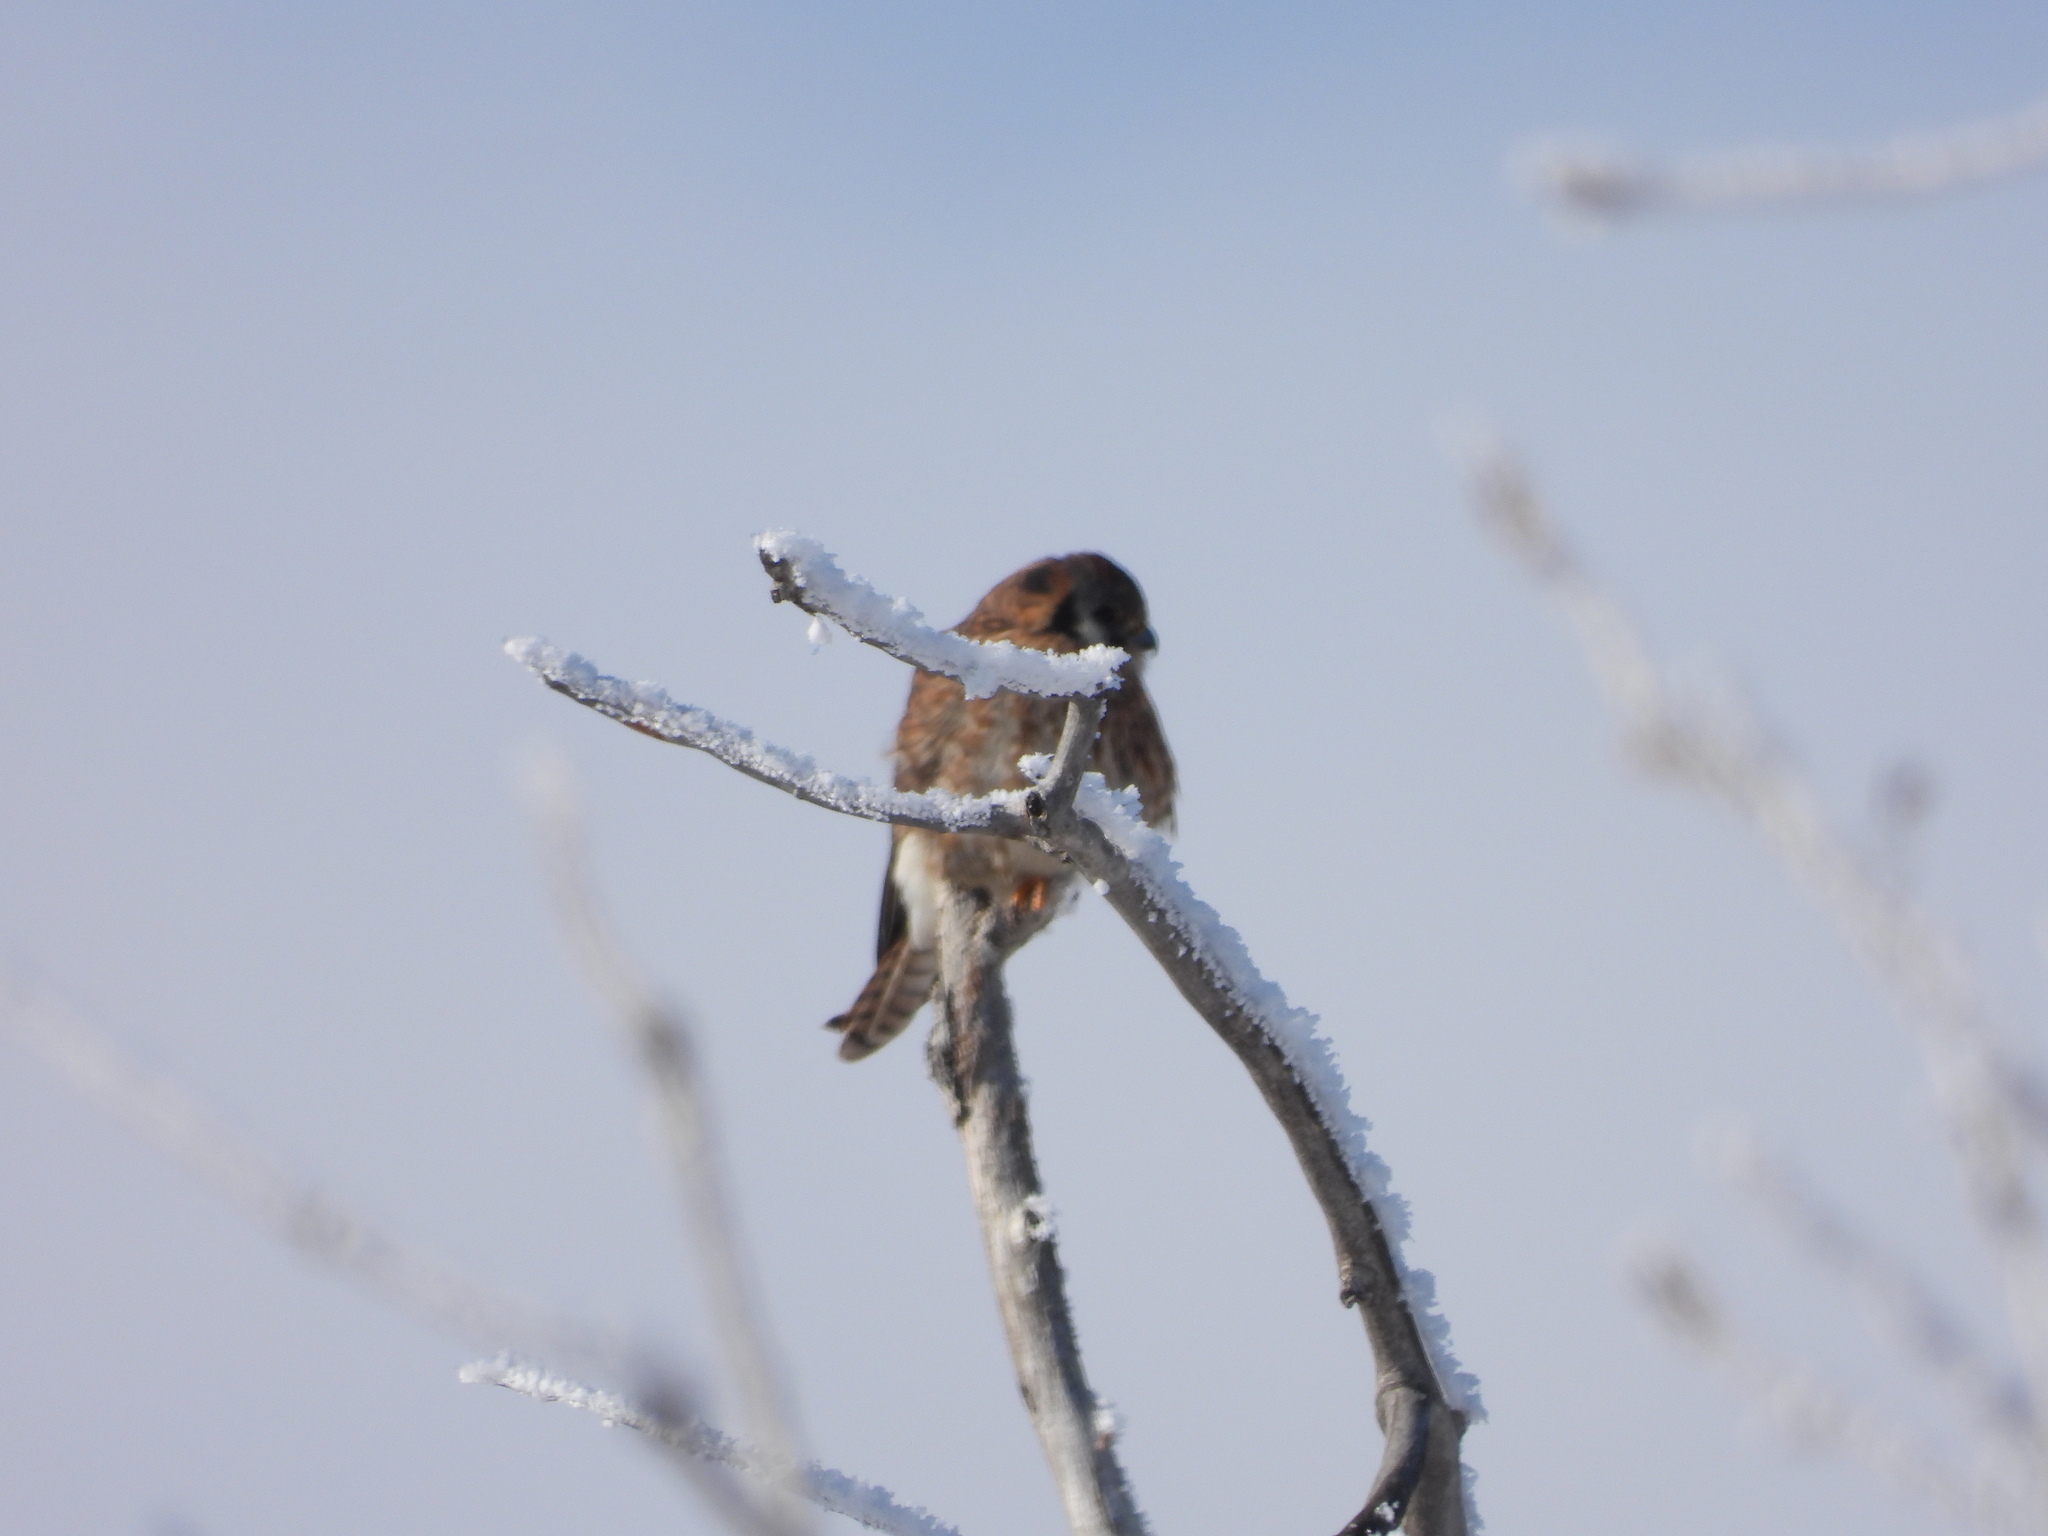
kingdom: Animalia
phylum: Chordata
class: Aves
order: Falconiformes
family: Falconidae
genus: Falco
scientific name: Falco sparverius
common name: American kestrel
